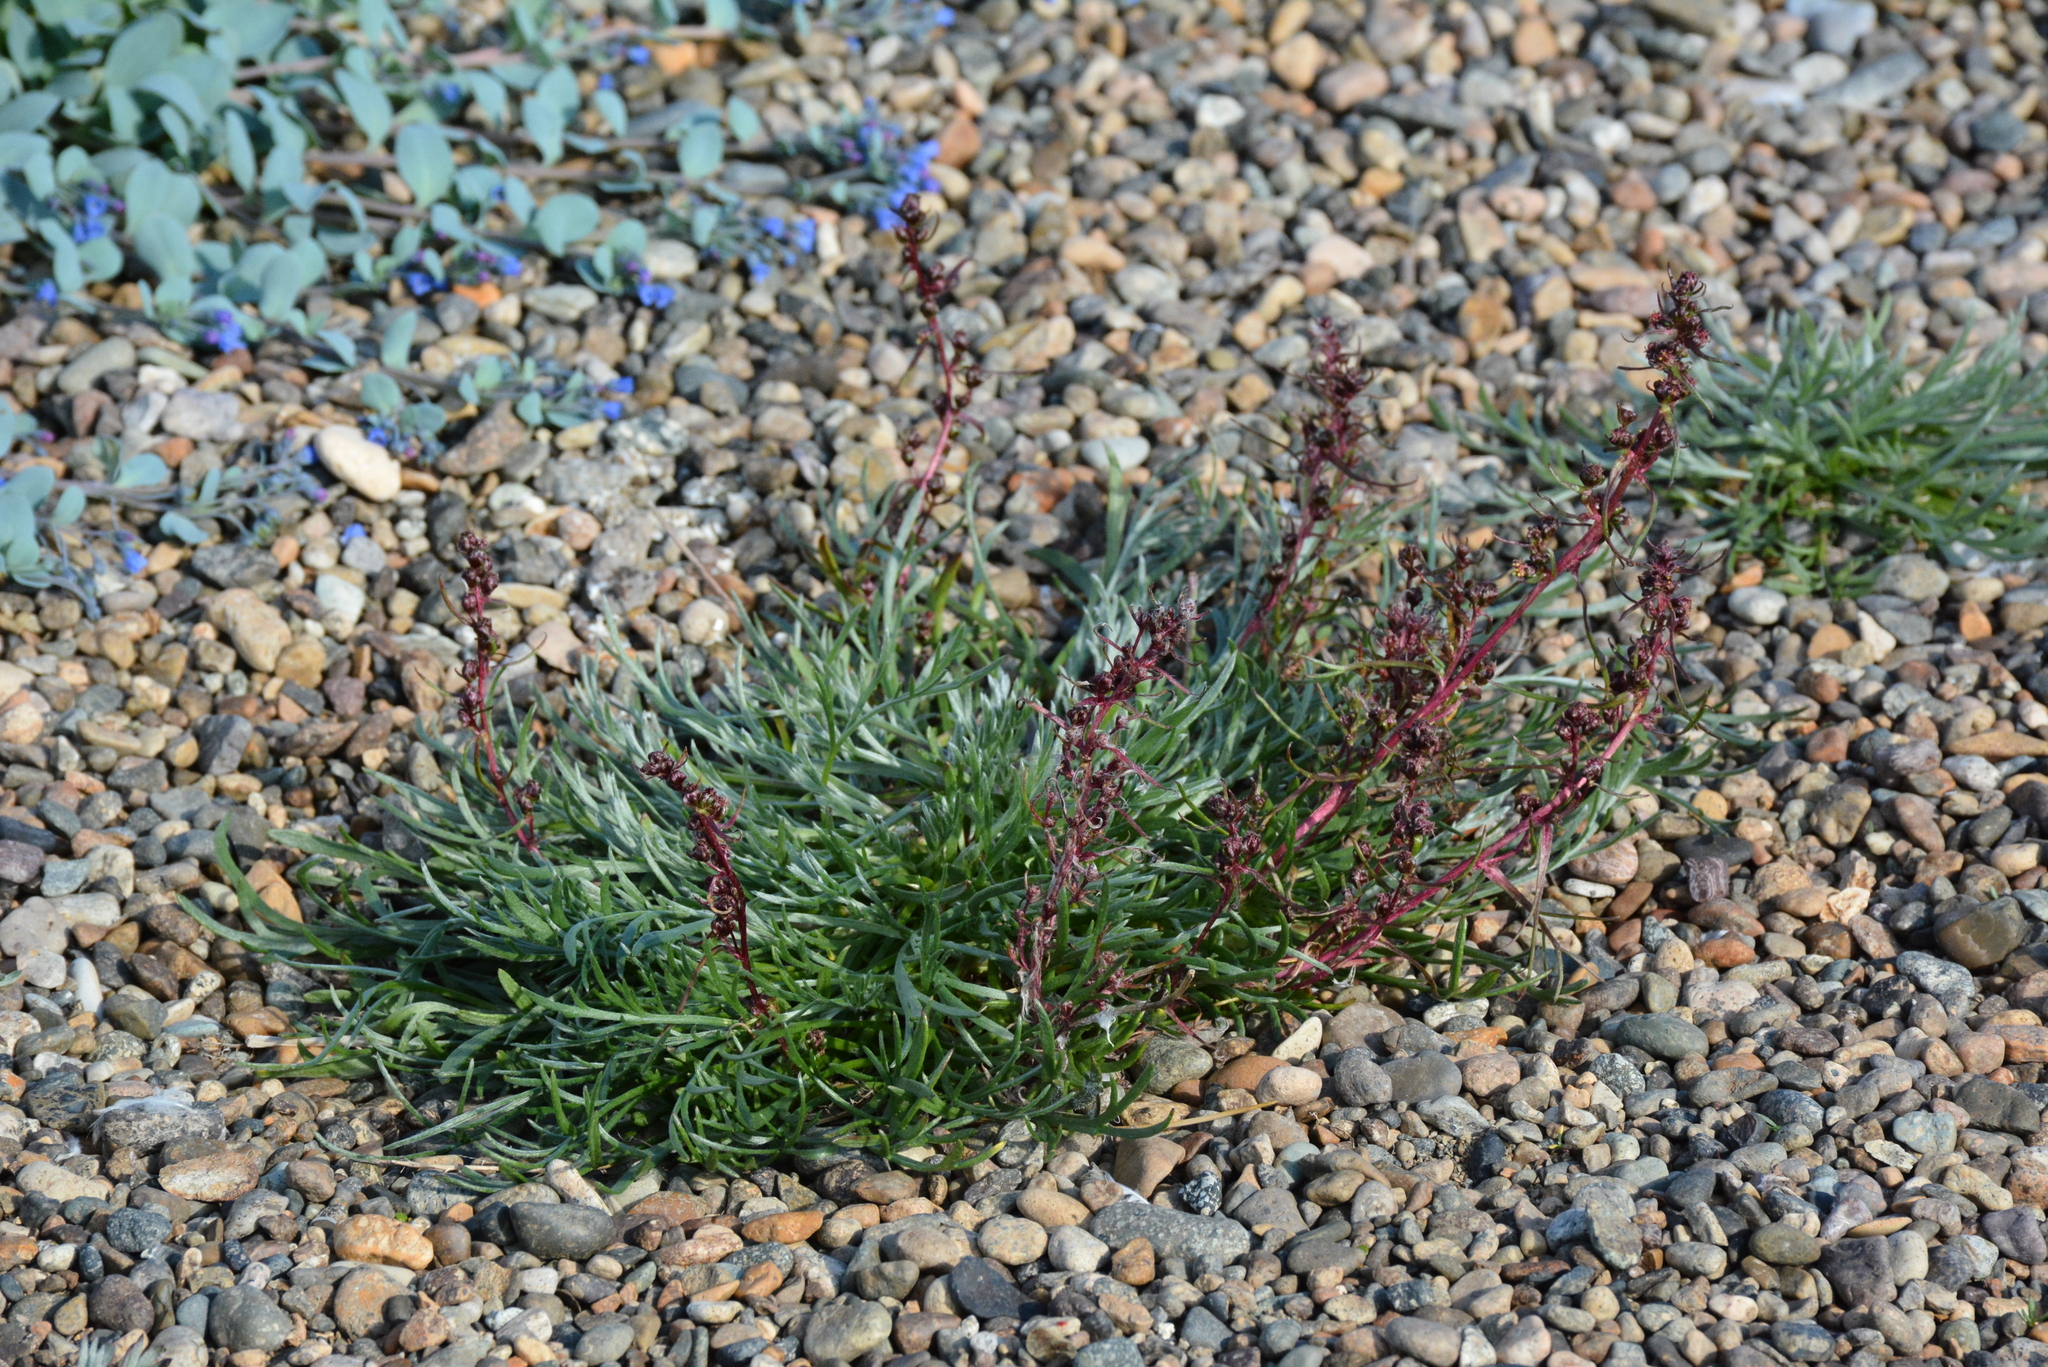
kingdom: Plantae
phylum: Tracheophyta
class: Magnoliopsida
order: Asterales
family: Asteraceae
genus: Artemisia
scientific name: Artemisia borealis
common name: Boreal sage
